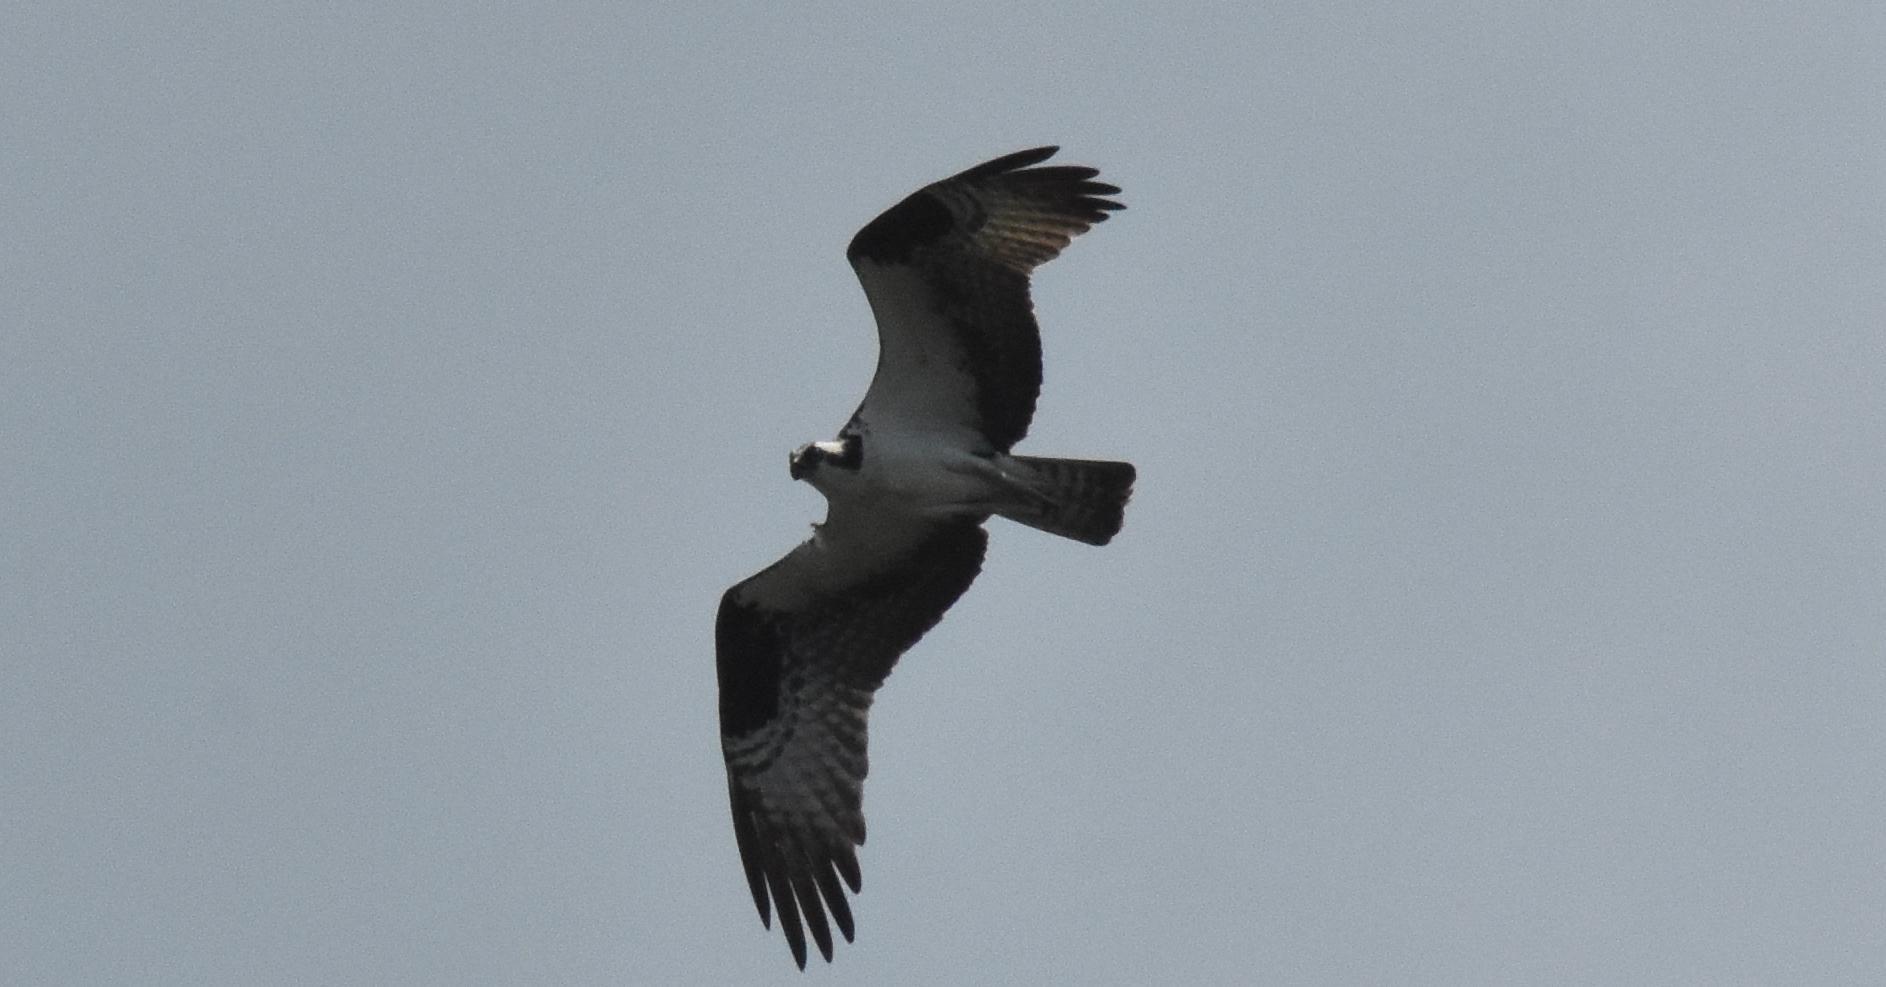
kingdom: Animalia
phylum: Chordata
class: Aves
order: Accipitriformes
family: Pandionidae
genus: Pandion
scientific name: Pandion haliaetus
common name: Osprey
